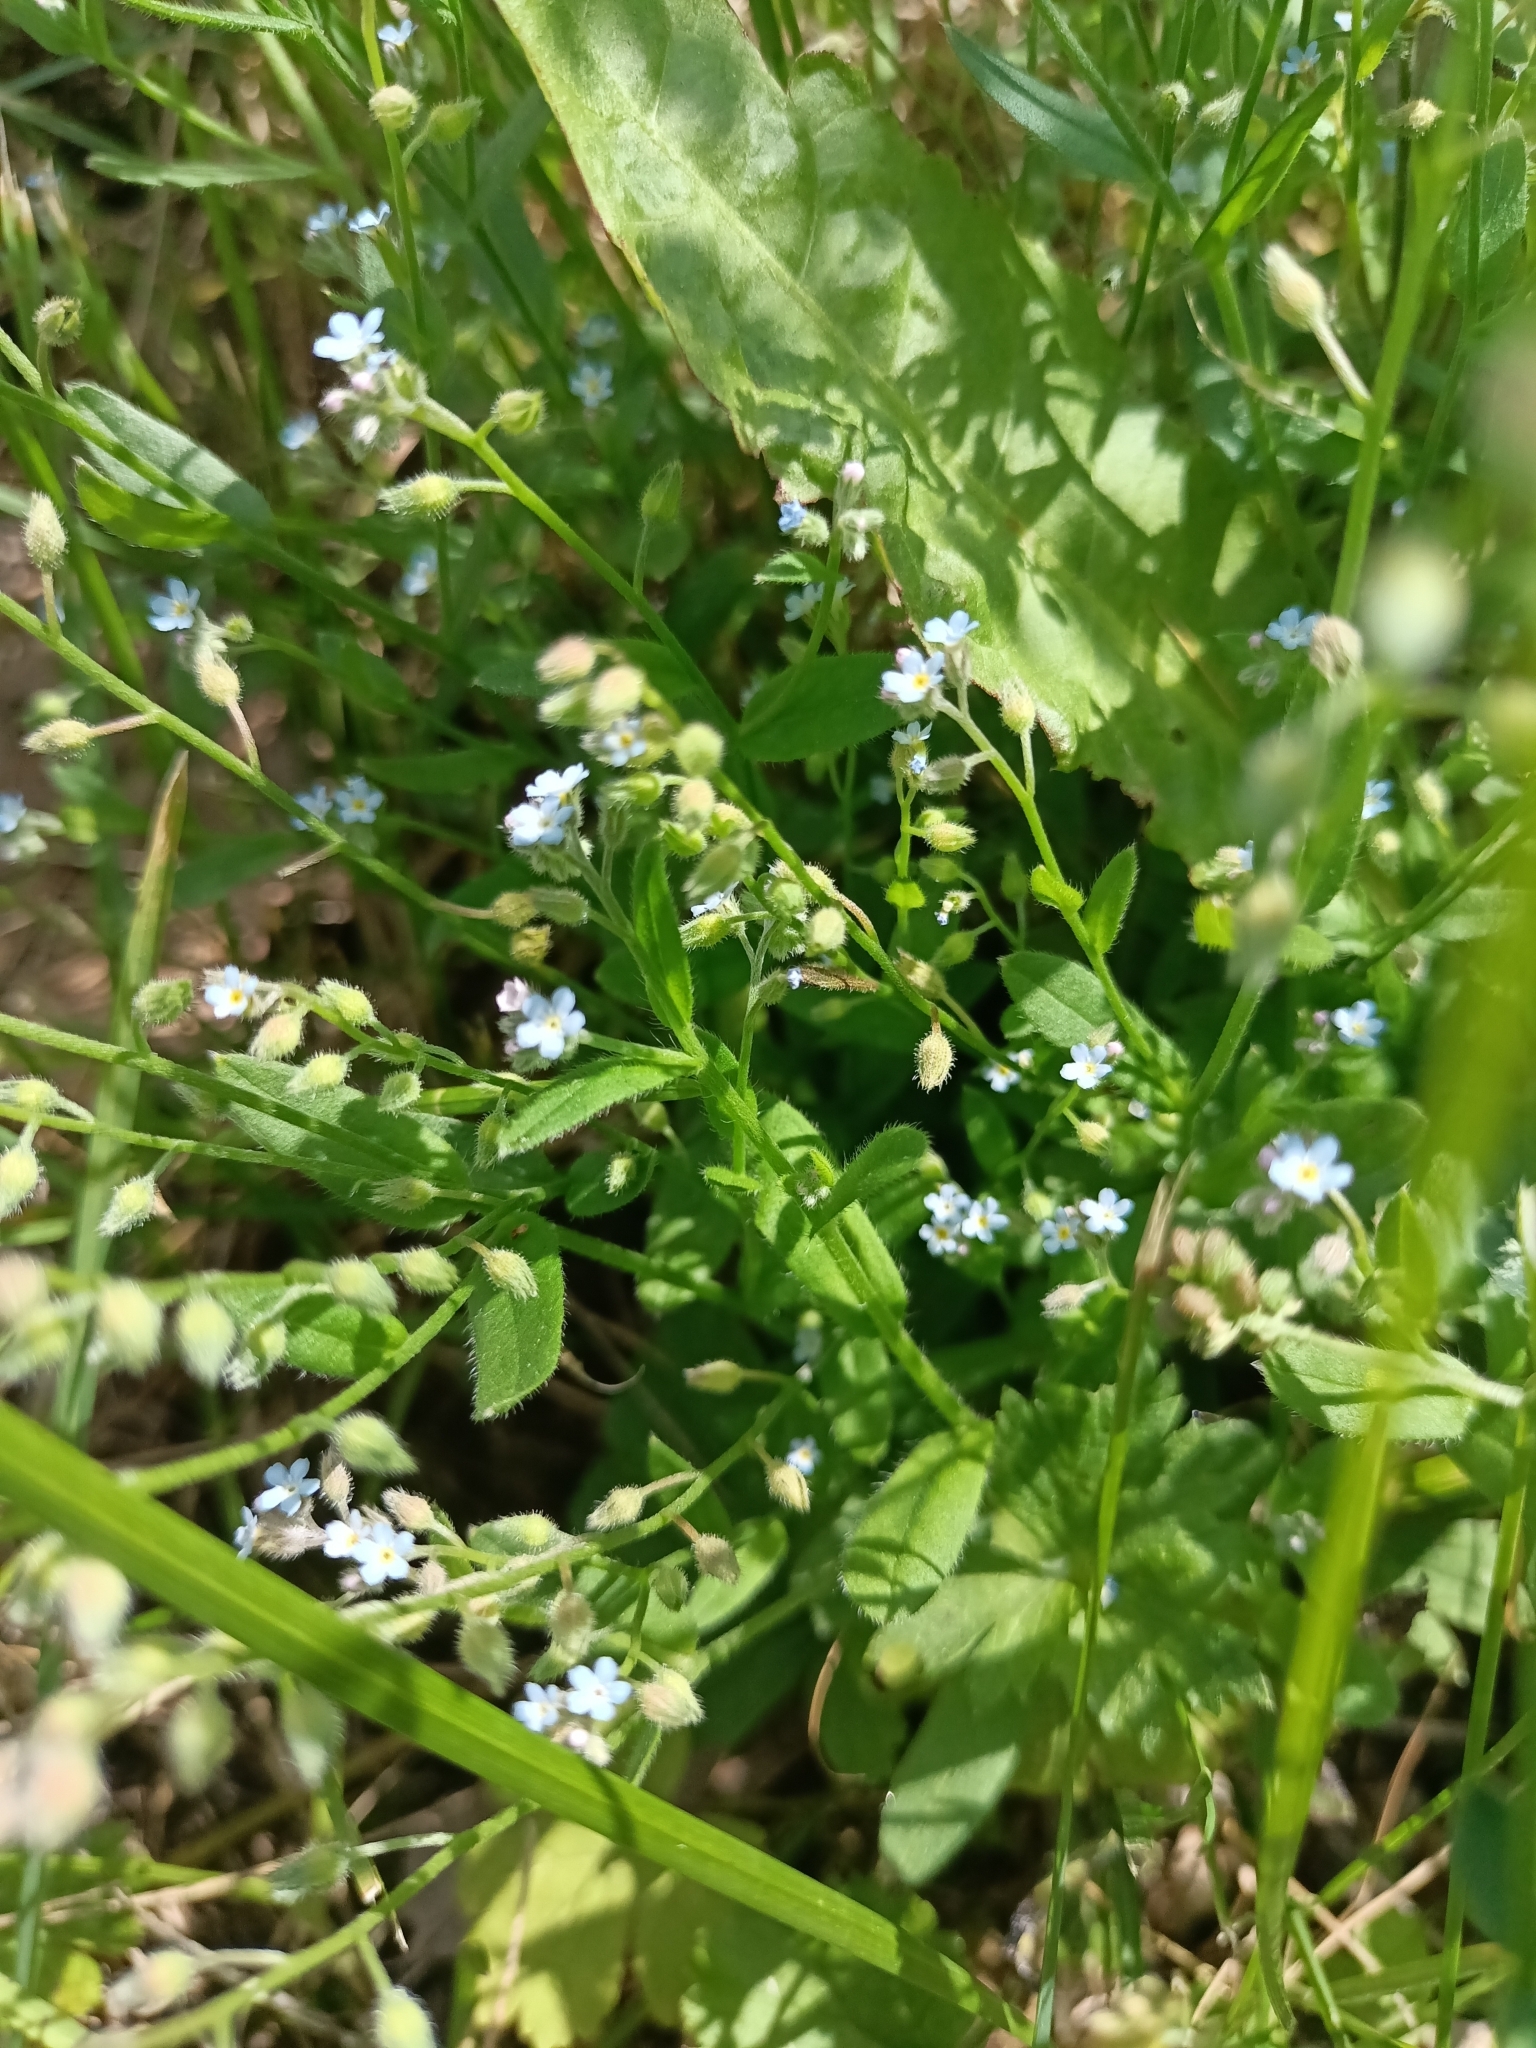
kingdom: Plantae
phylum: Tracheophyta
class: Magnoliopsida
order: Boraginales
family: Boraginaceae
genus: Myosotis
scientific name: Myosotis arvensis
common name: Field forget-me-not
